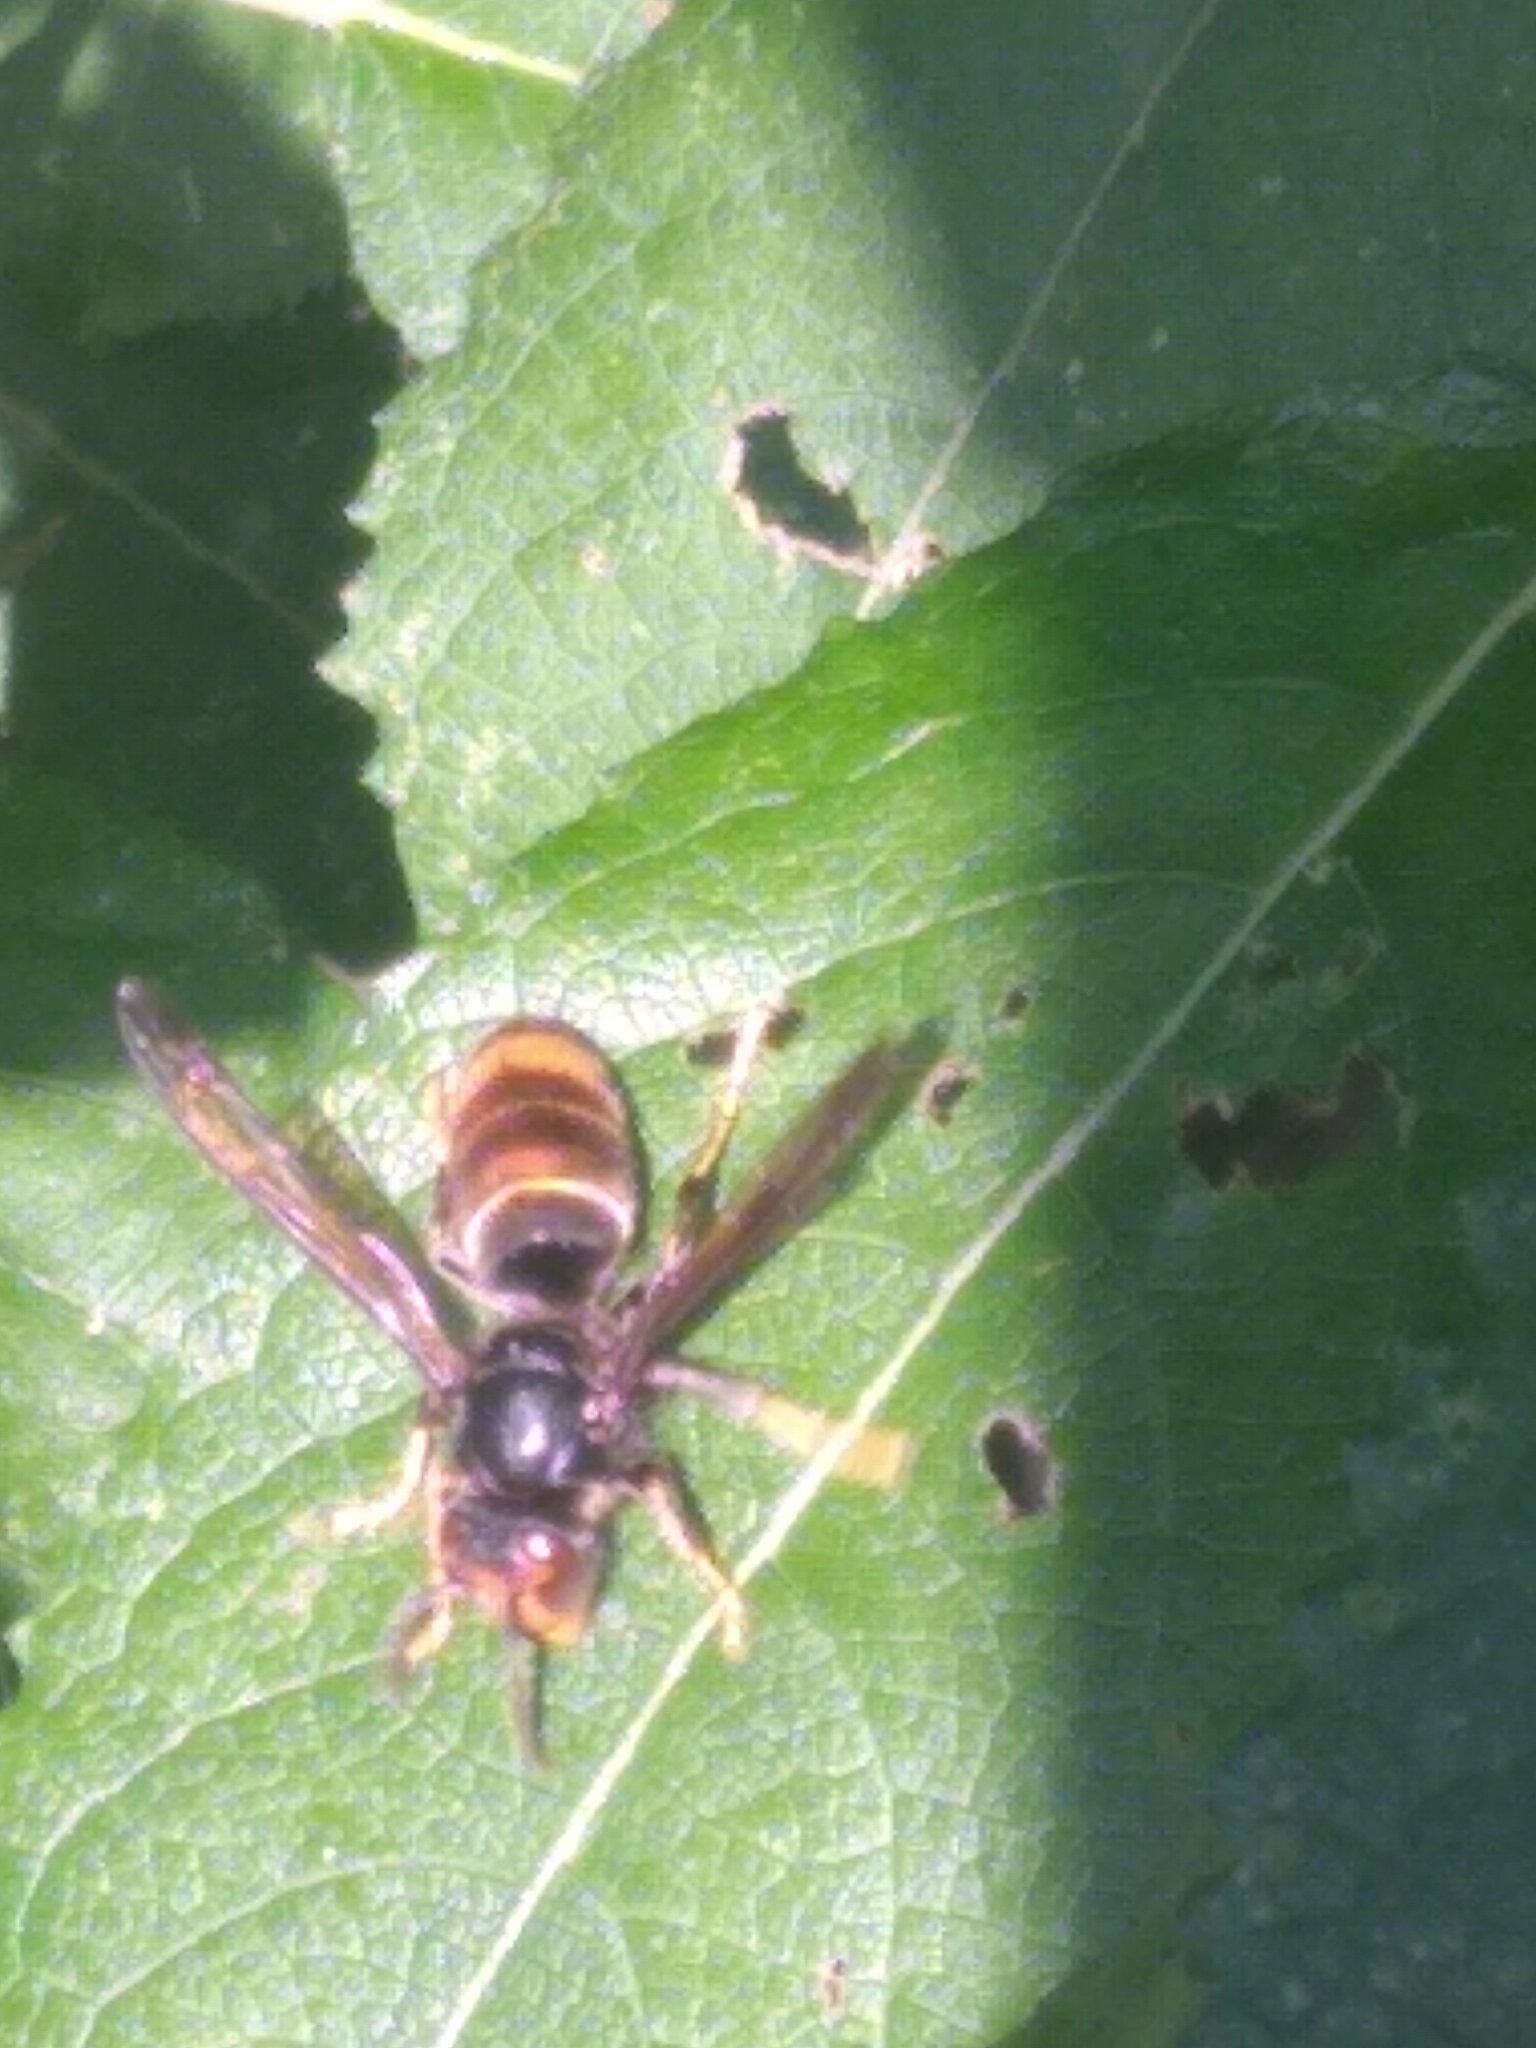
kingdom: Animalia
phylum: Arthropoda
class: Insecta
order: Hymenoptera
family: Vespidae
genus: Vespa
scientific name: Vespa velutina
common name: Asian hornet
